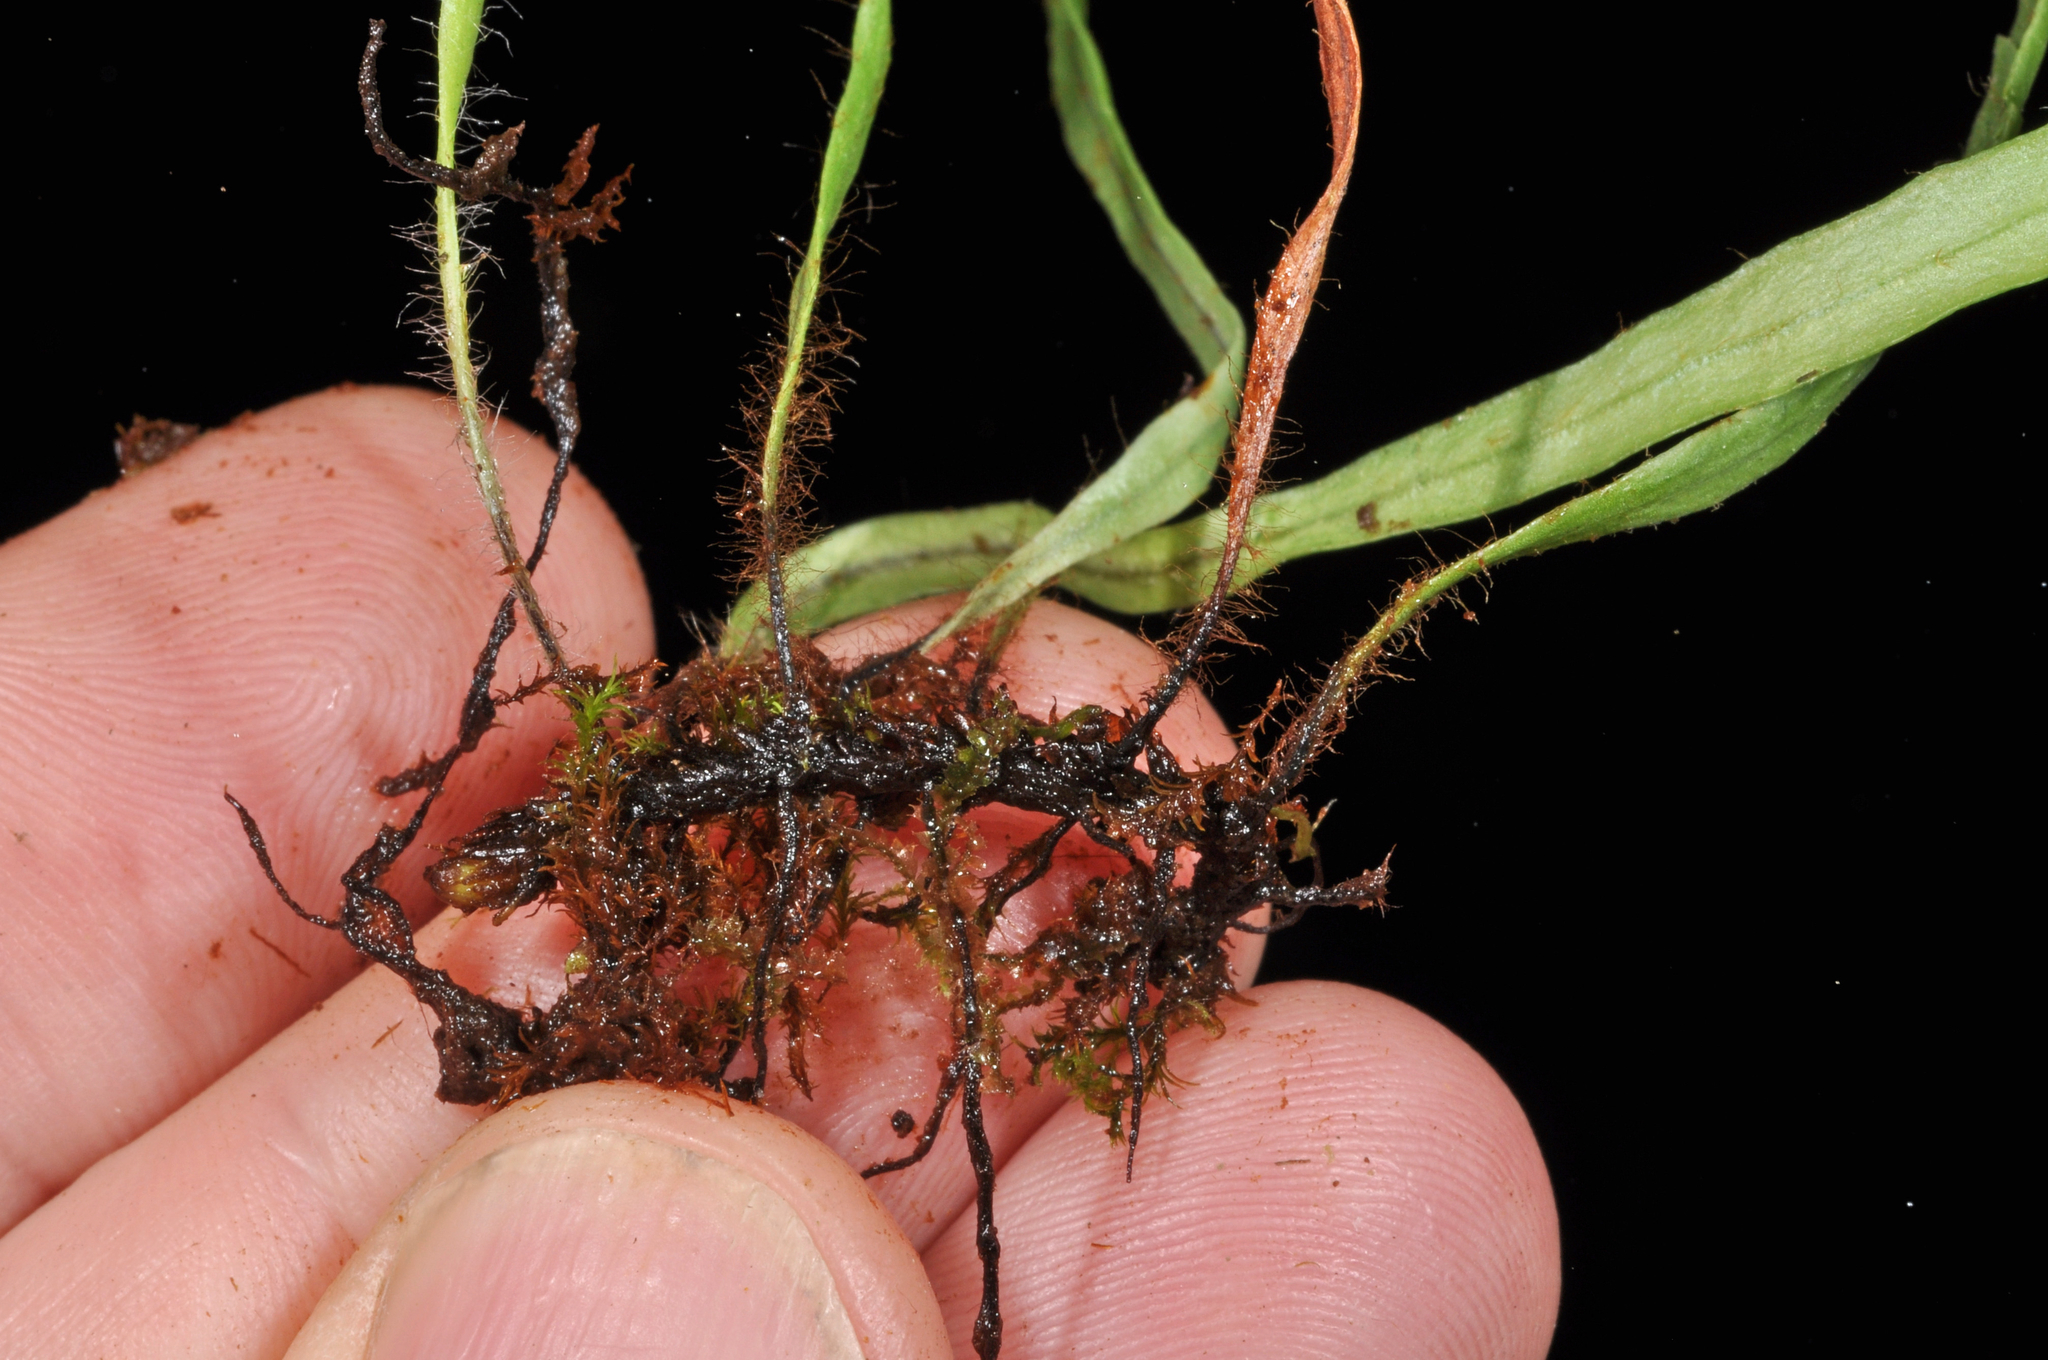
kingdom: Plantae
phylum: Tracheophyta
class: Polypodiopsida
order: Polypodiales
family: Polypodiaceae
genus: Notogrammitis
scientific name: Notogrammitis patagonica
